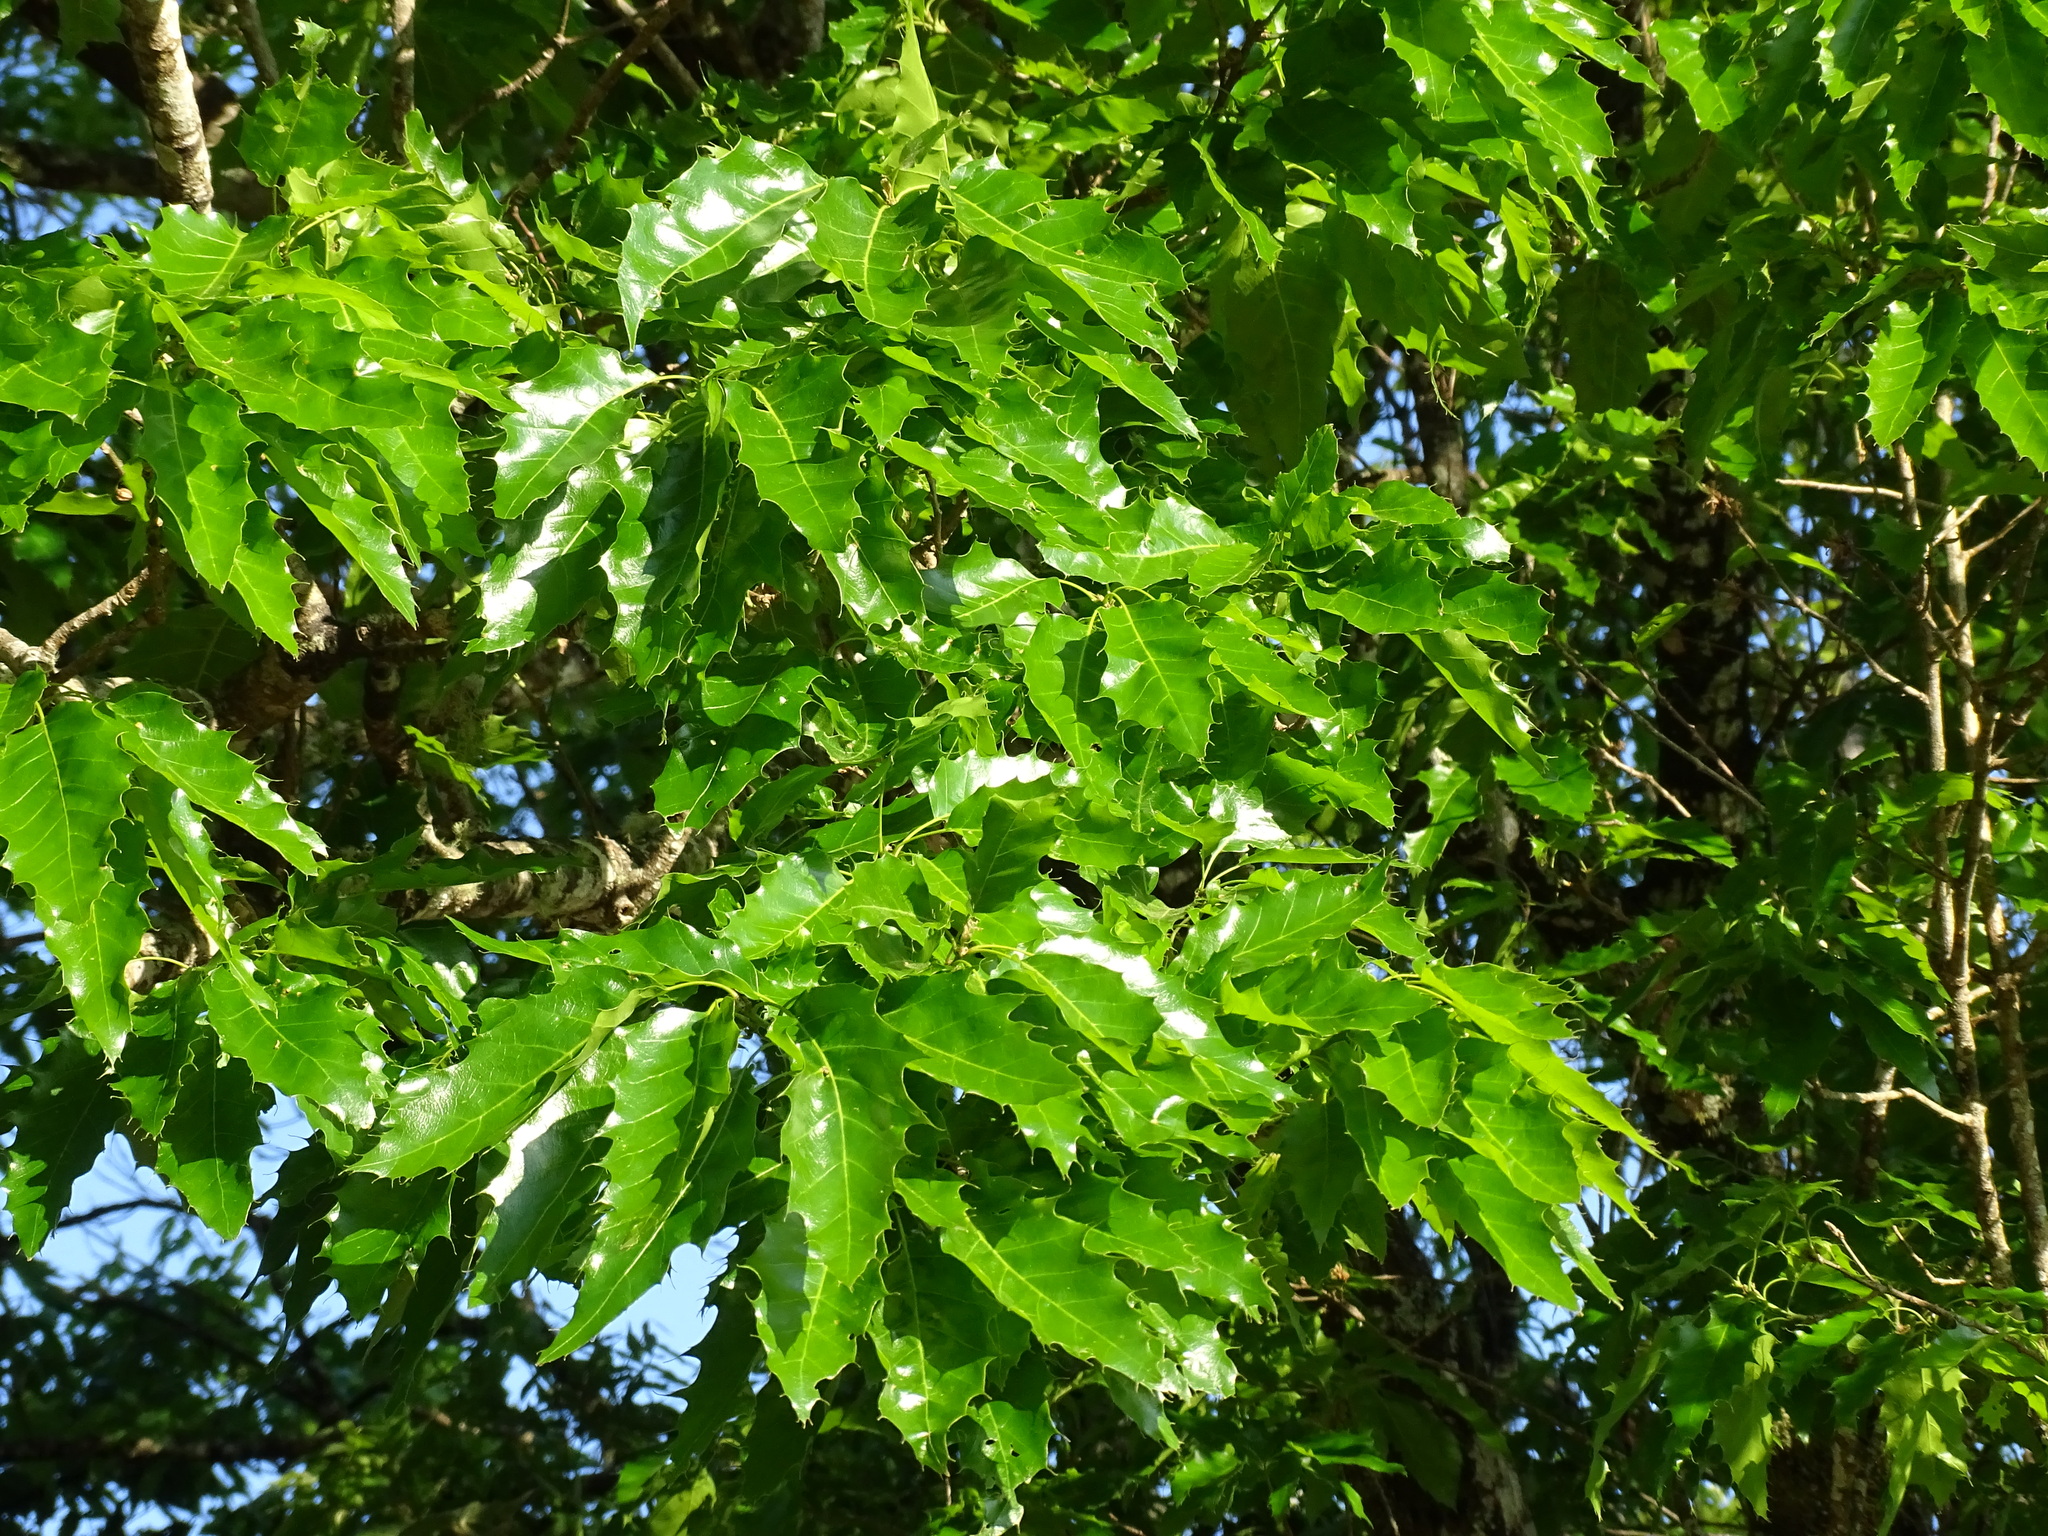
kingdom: Plantae
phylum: Tracheophyta
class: Magnoliopsida
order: Fagales
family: Fagaceae
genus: Quercus
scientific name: Quercus paxtalensis
